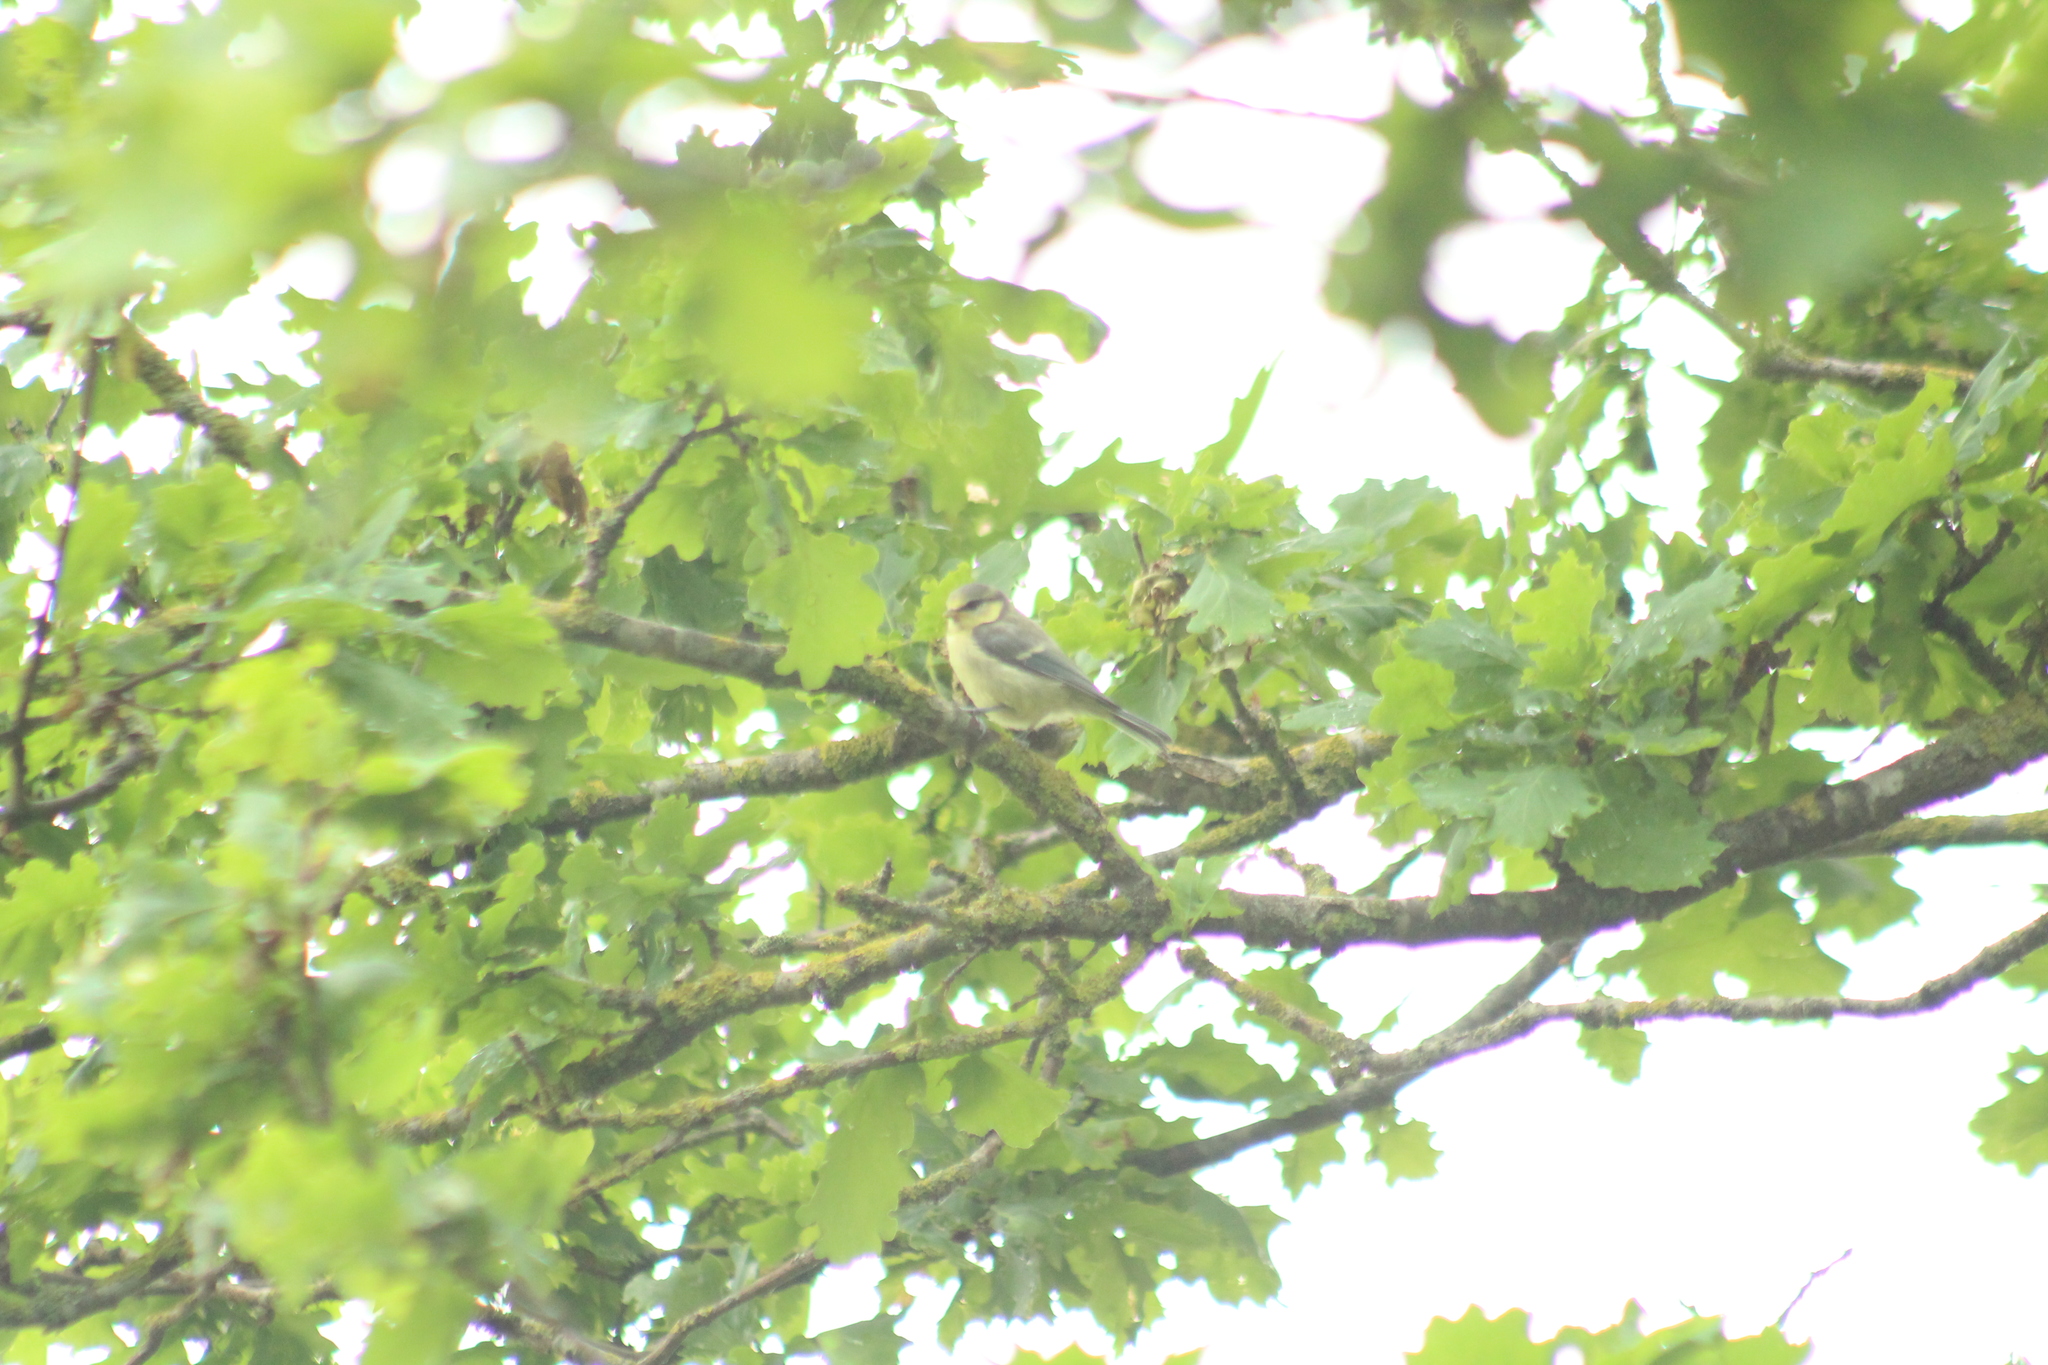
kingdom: Animalia
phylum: Chordata
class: Aves
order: Passeriformes
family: Paridae
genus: Cyanistes
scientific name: Cyanistes caeruleus
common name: Eurasian blue tit
